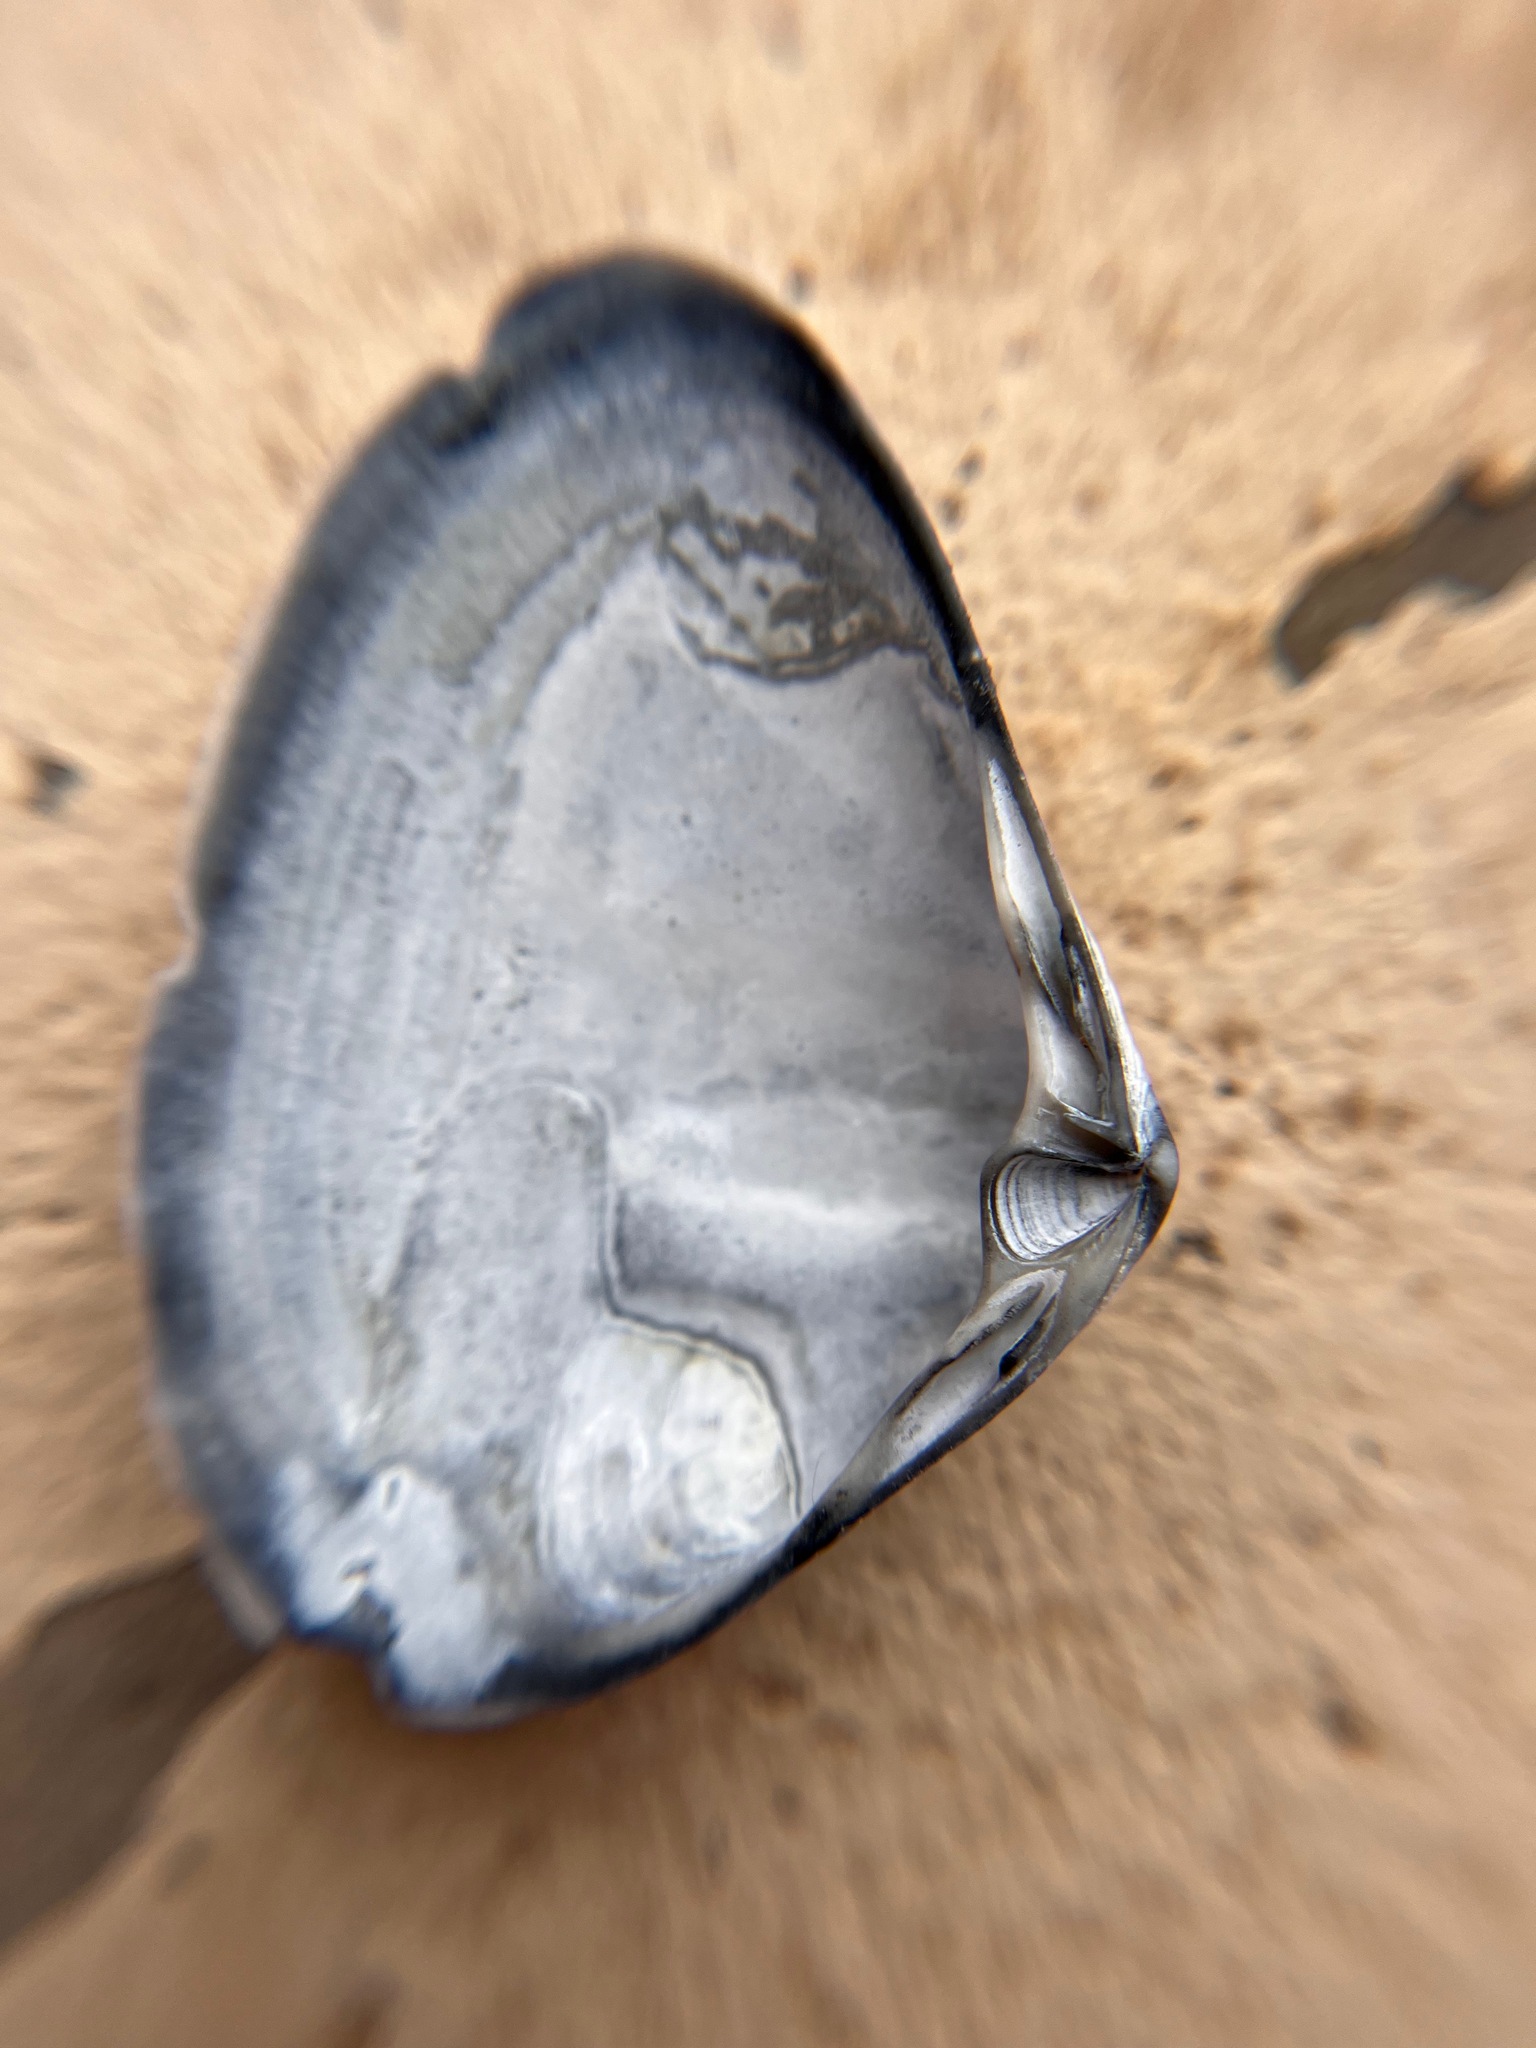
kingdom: Animalia
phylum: Mollusca
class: Bivalvia
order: Venerida
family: Mactridae
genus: Simomactra
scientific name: Simomactra falcata
